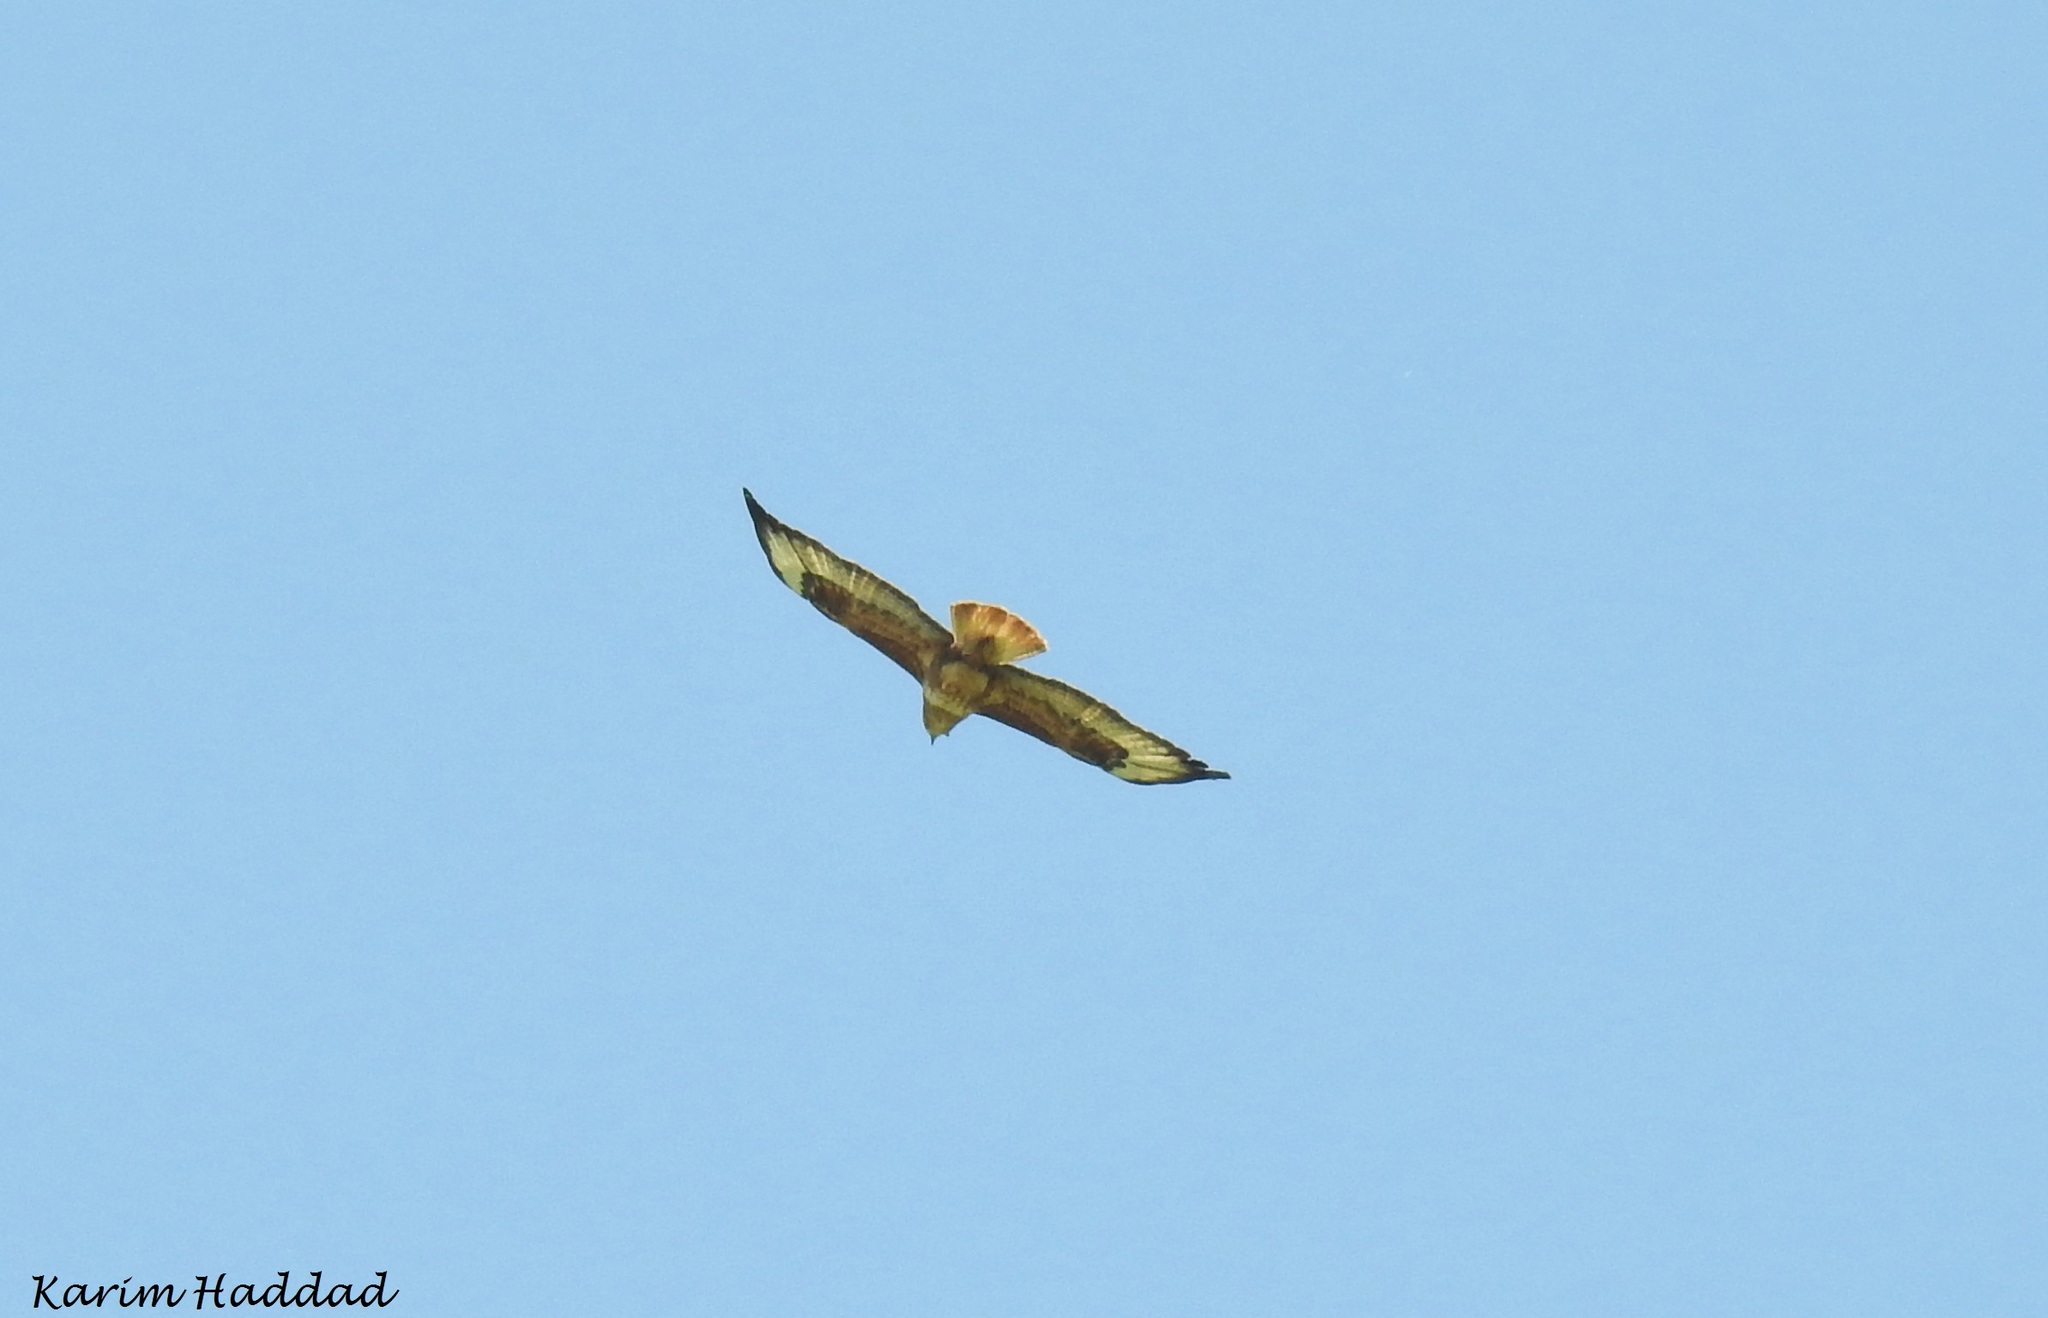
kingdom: Animalia
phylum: Chordata
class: Aves
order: Accipitriformes
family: Accipitridae
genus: Buteo
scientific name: Buteo rufinus
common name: Long-legged buzzard
